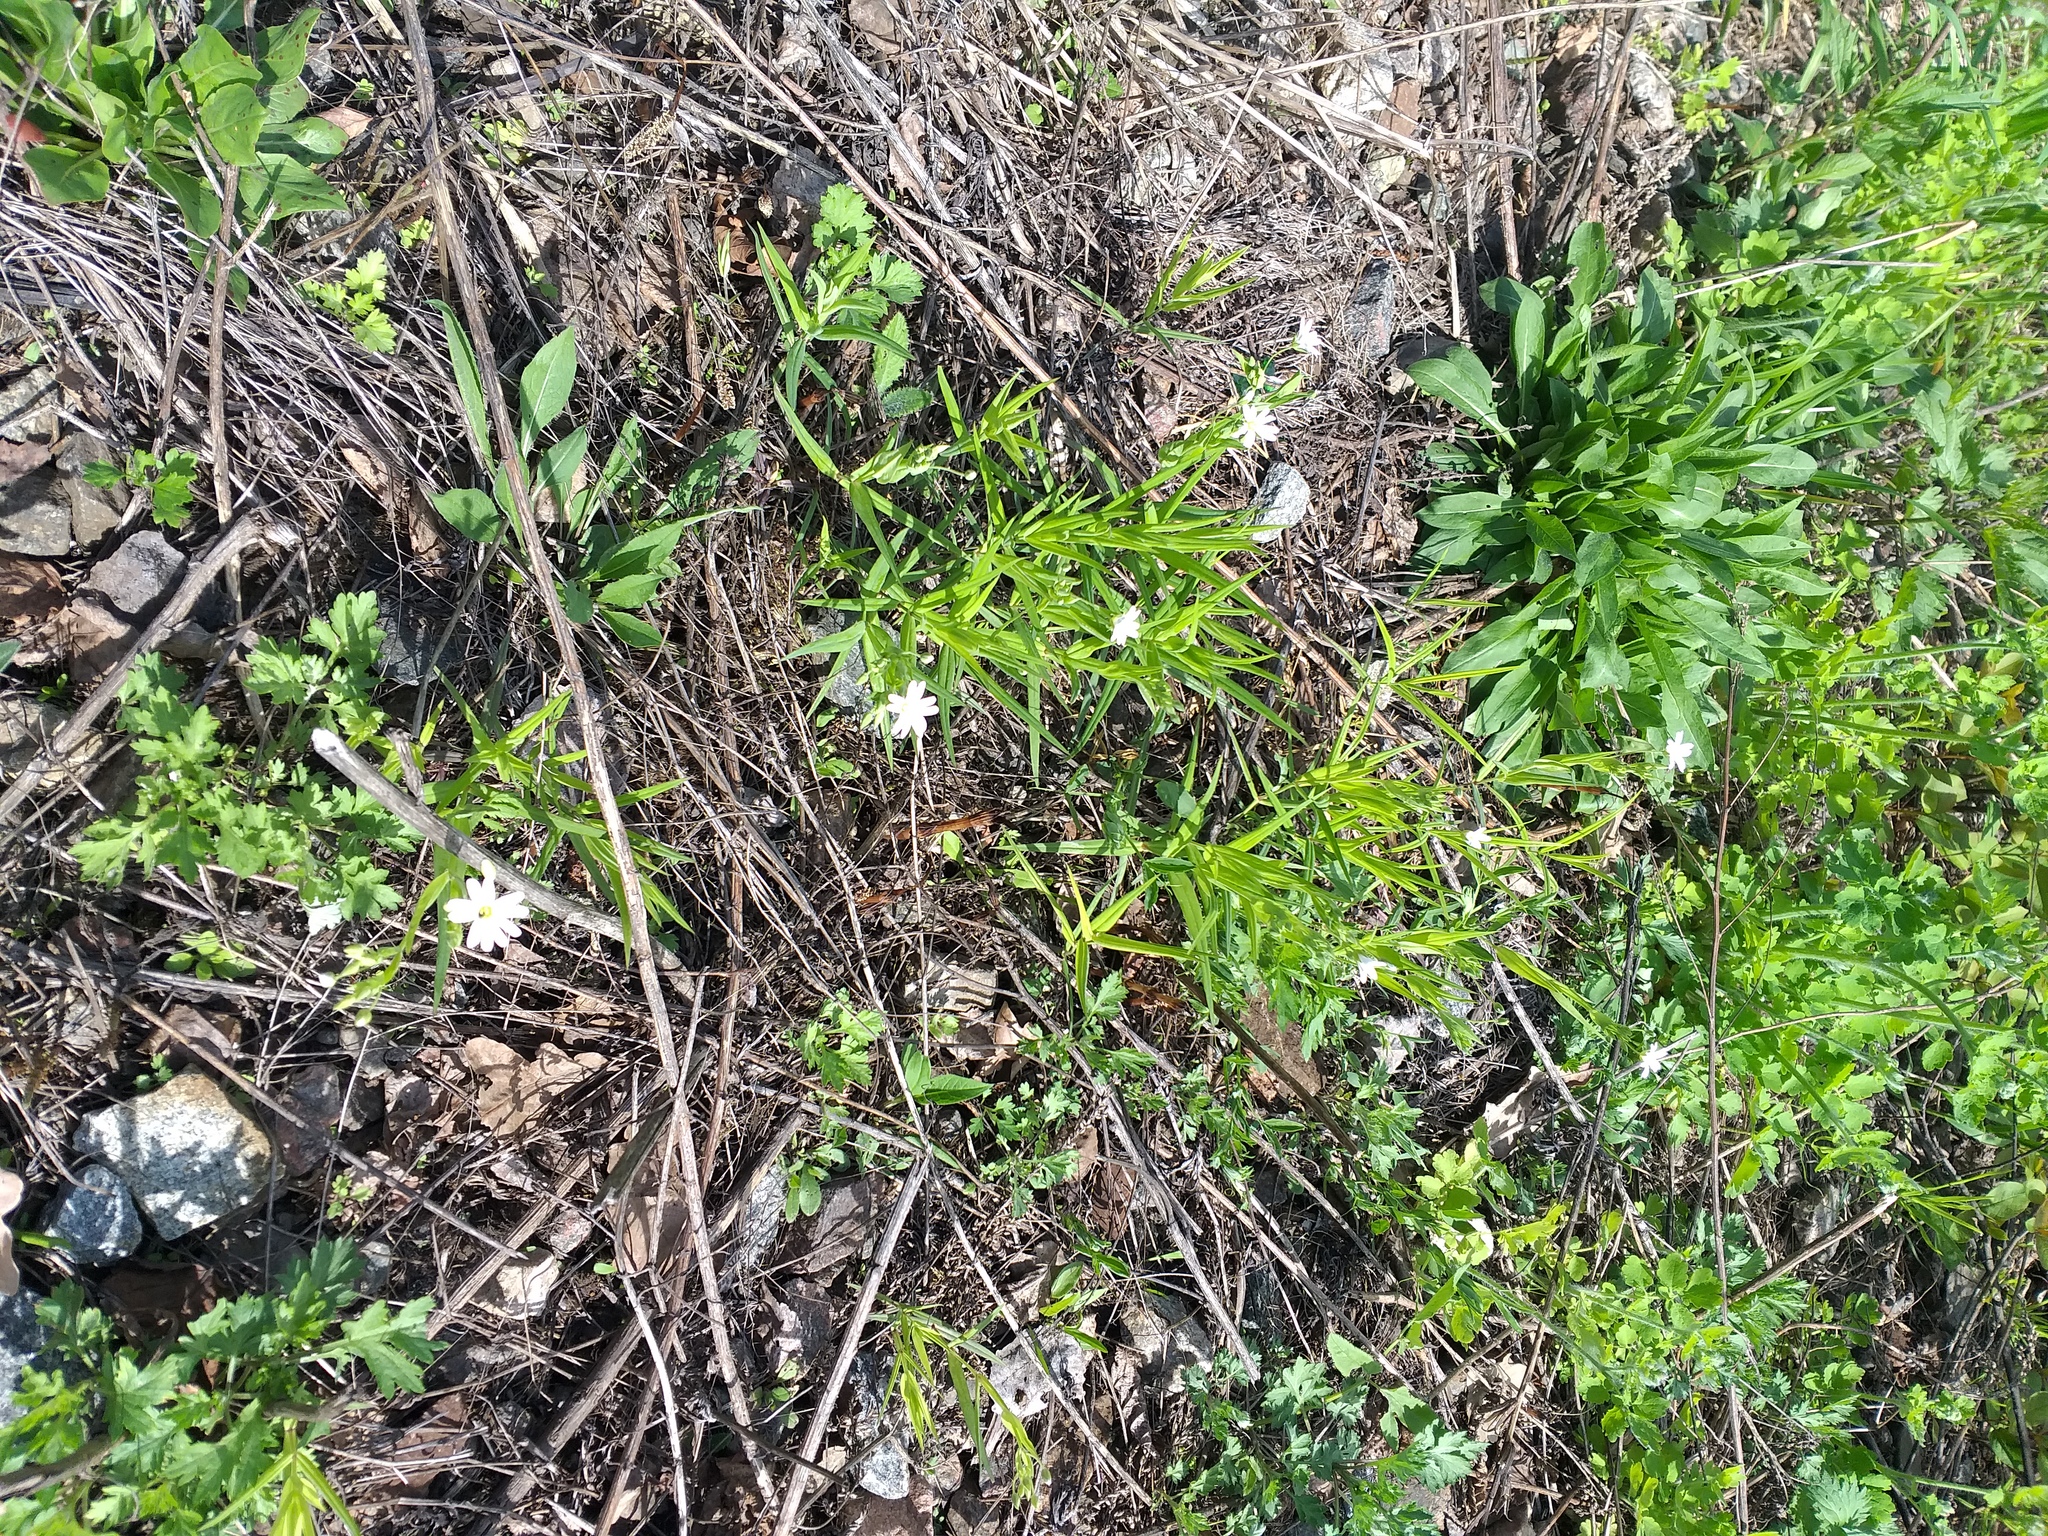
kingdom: Plantae
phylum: Tracheophyta
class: Magnoliopsida
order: Caryophyllales
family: Caryophyllaceae
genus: Rabelera
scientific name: Rabelera holostea
